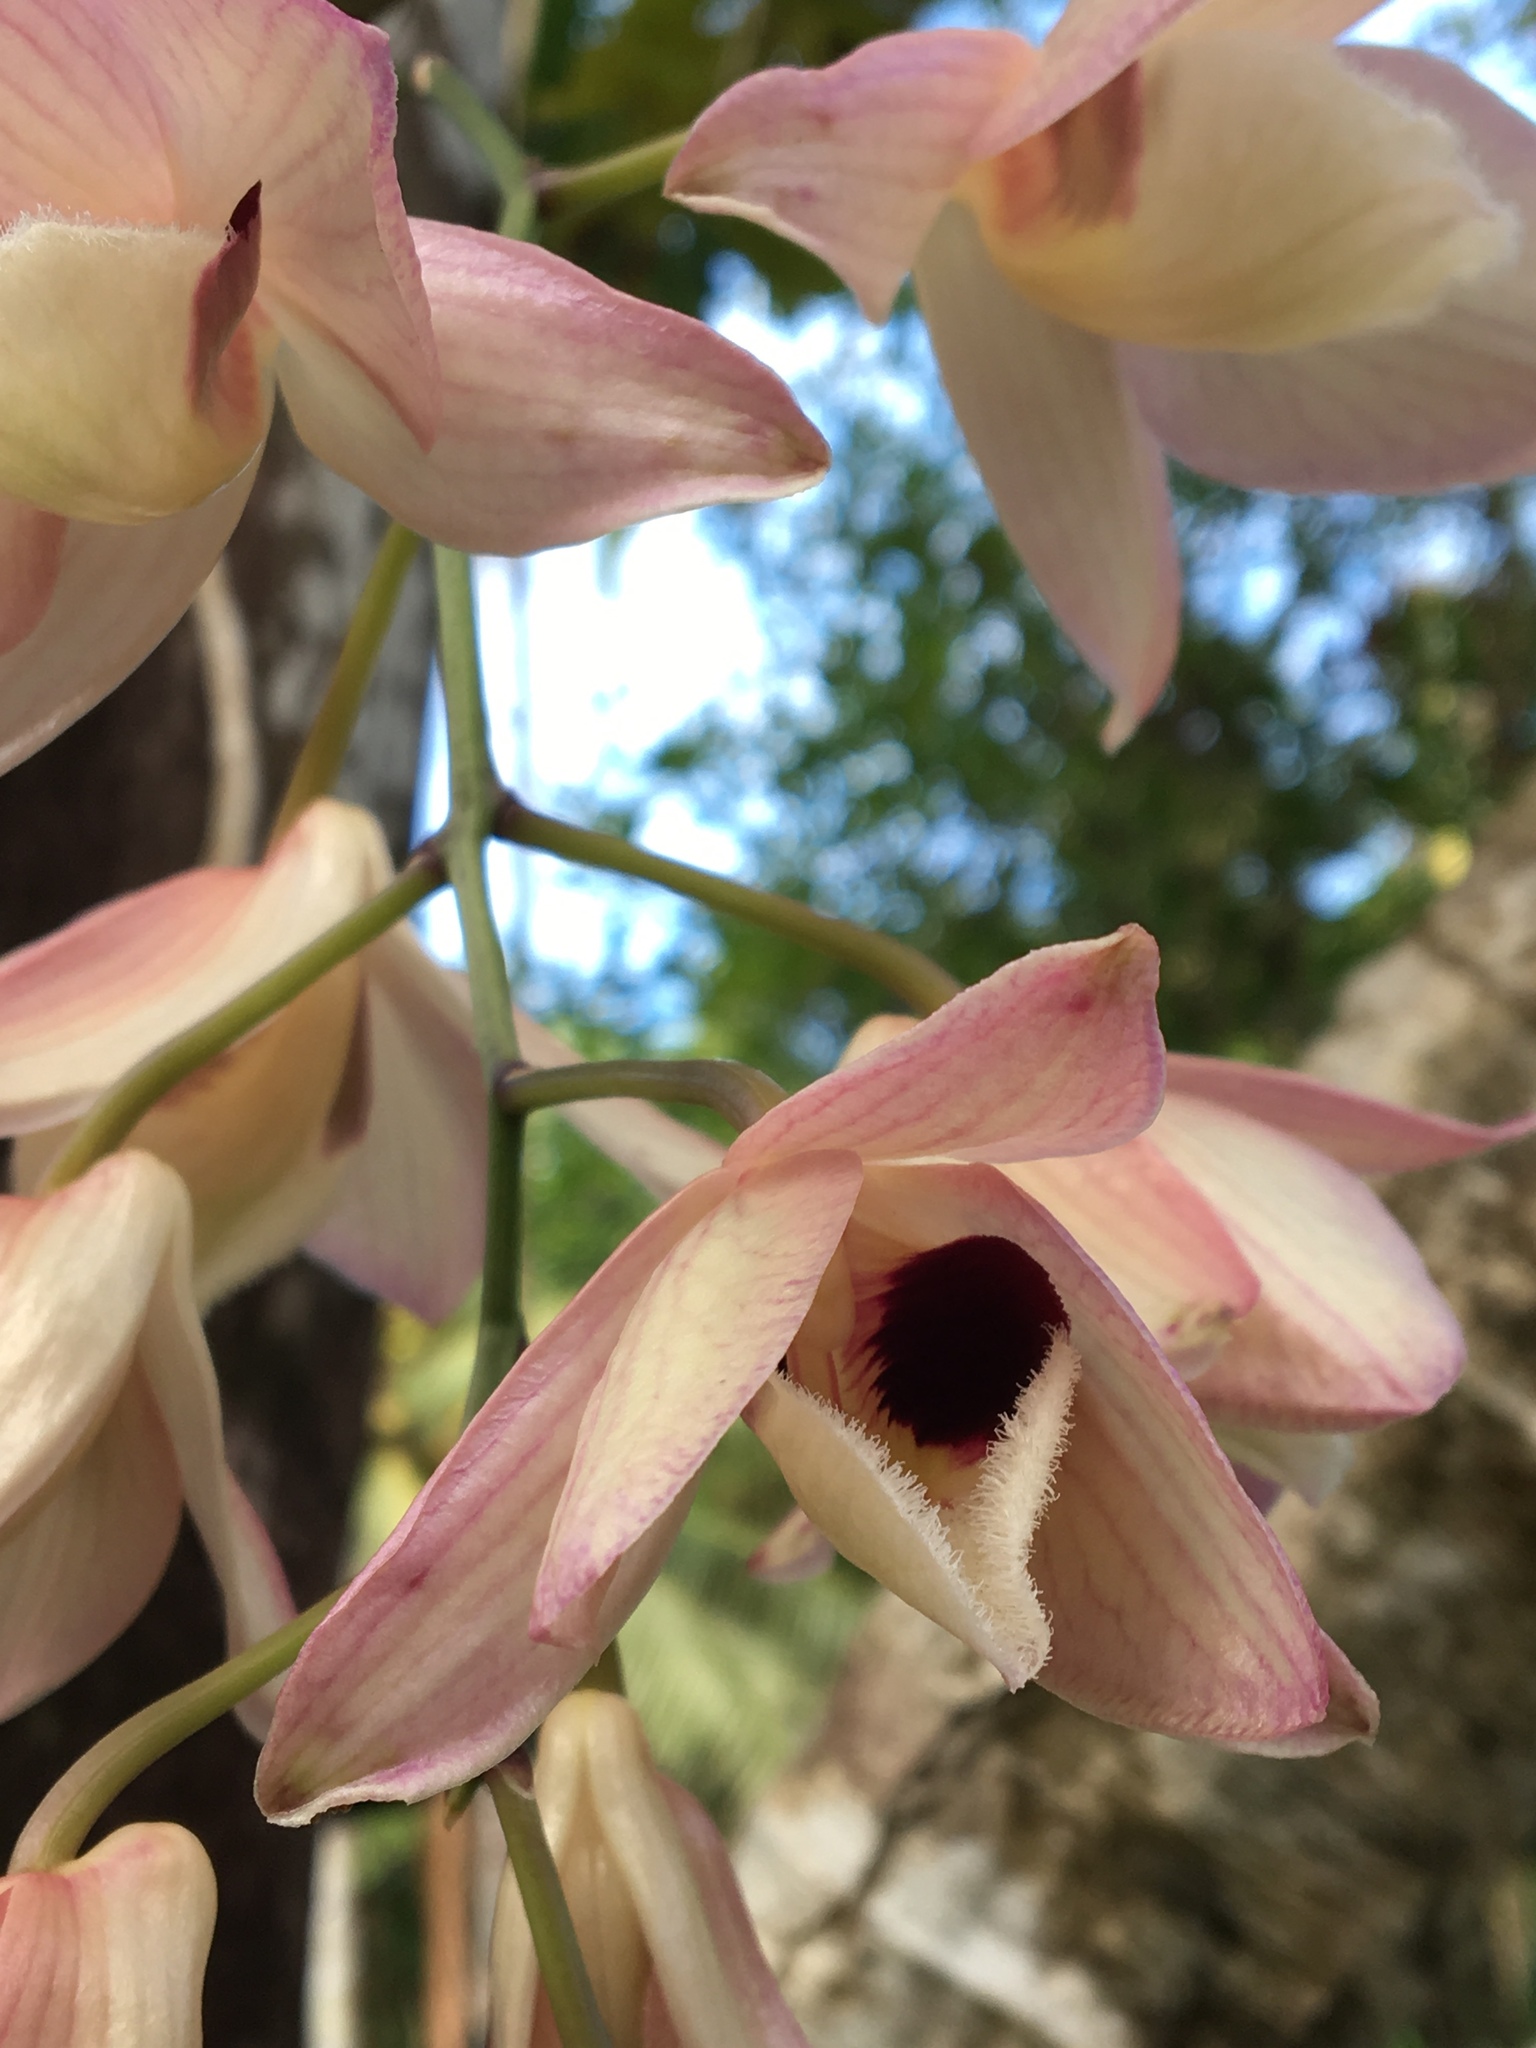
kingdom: Plantae
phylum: Tracheophyta
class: Liliopsida
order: Asparagales
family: Orchidaceae
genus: Dendrobium
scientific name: Dendrobium moschatum
